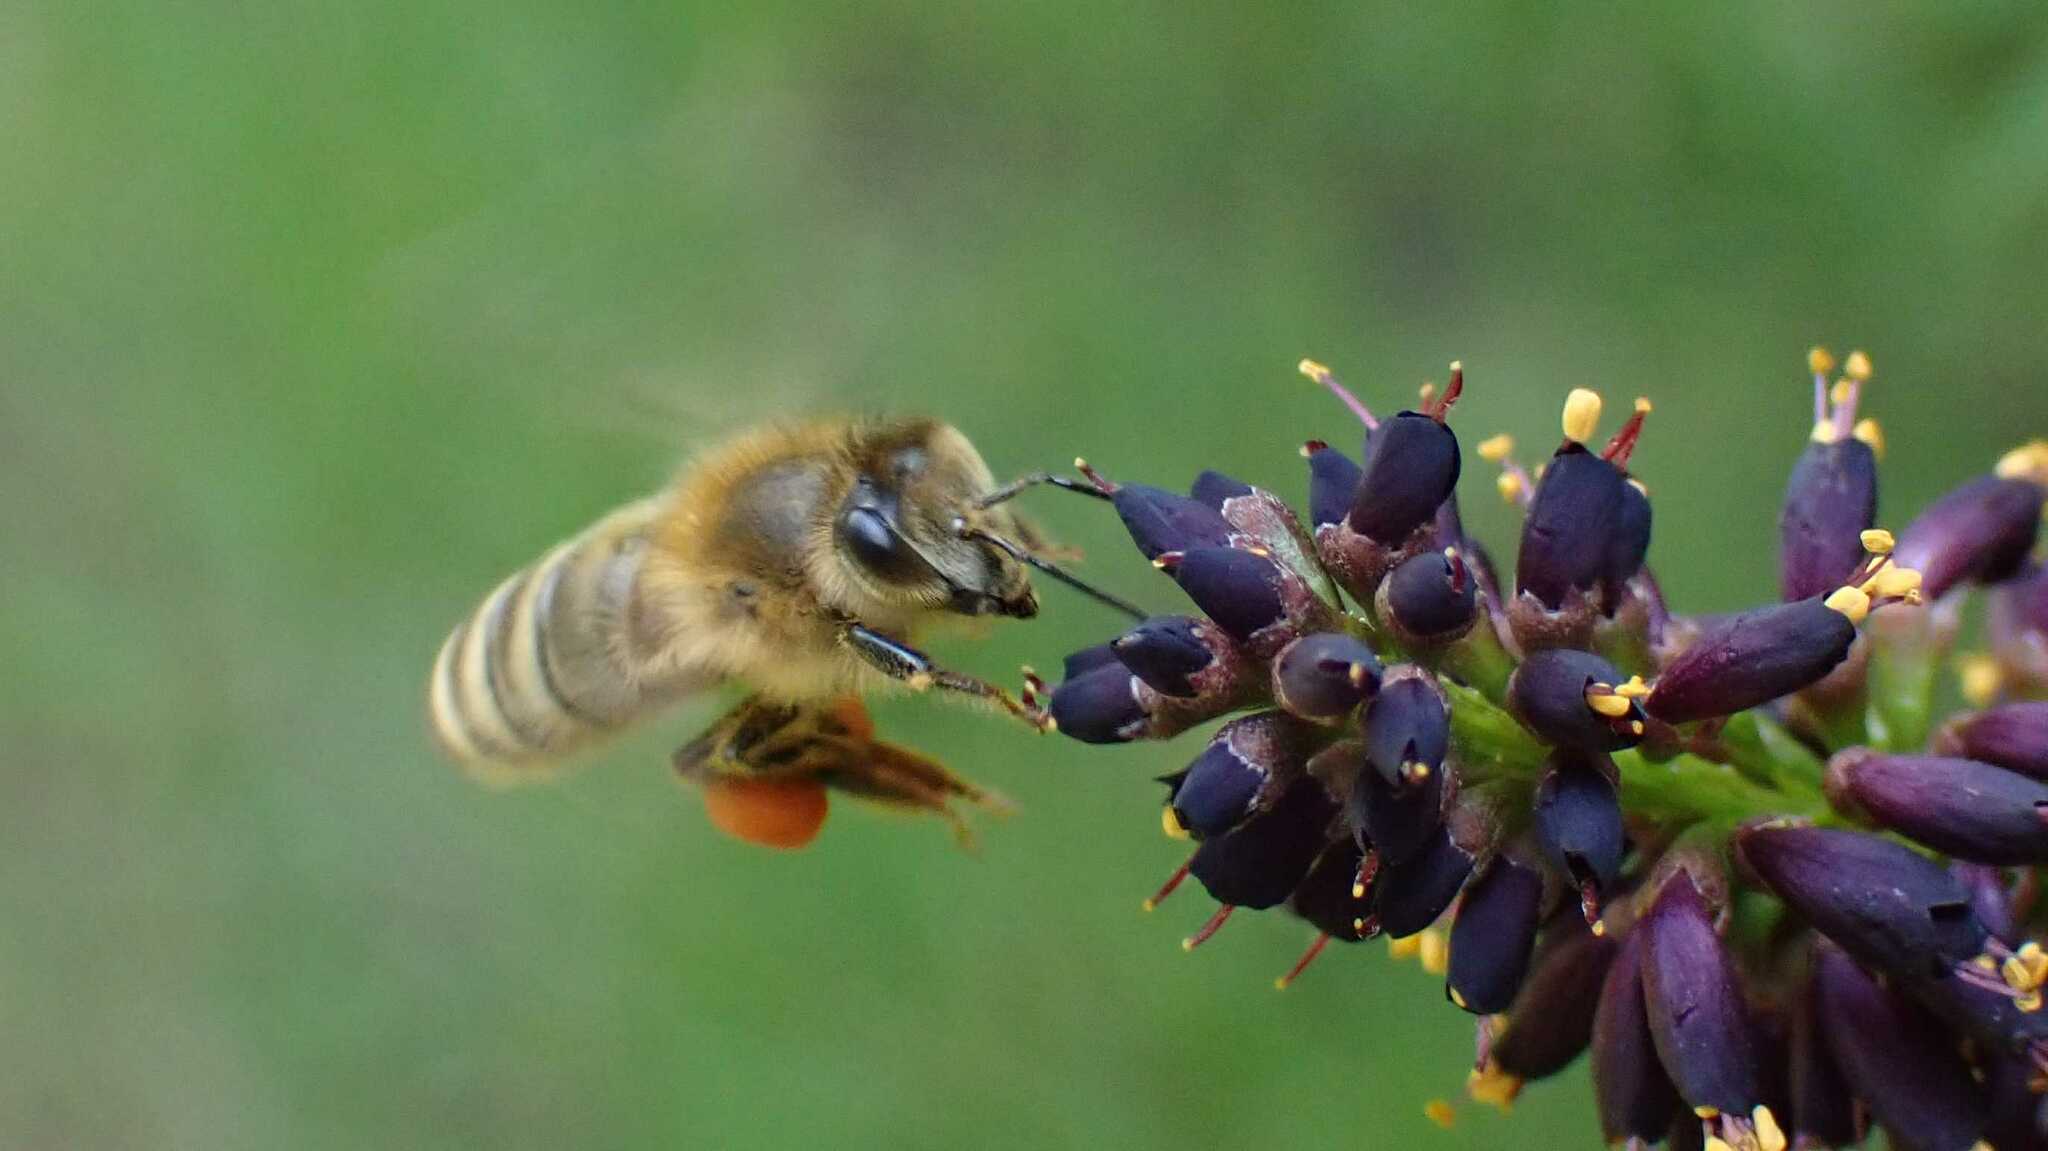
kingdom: Animalia
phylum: Arthropoda
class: Insecta
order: Hymenoptera
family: Apidae
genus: Apis
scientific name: Apis mellifera
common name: Honey bee
